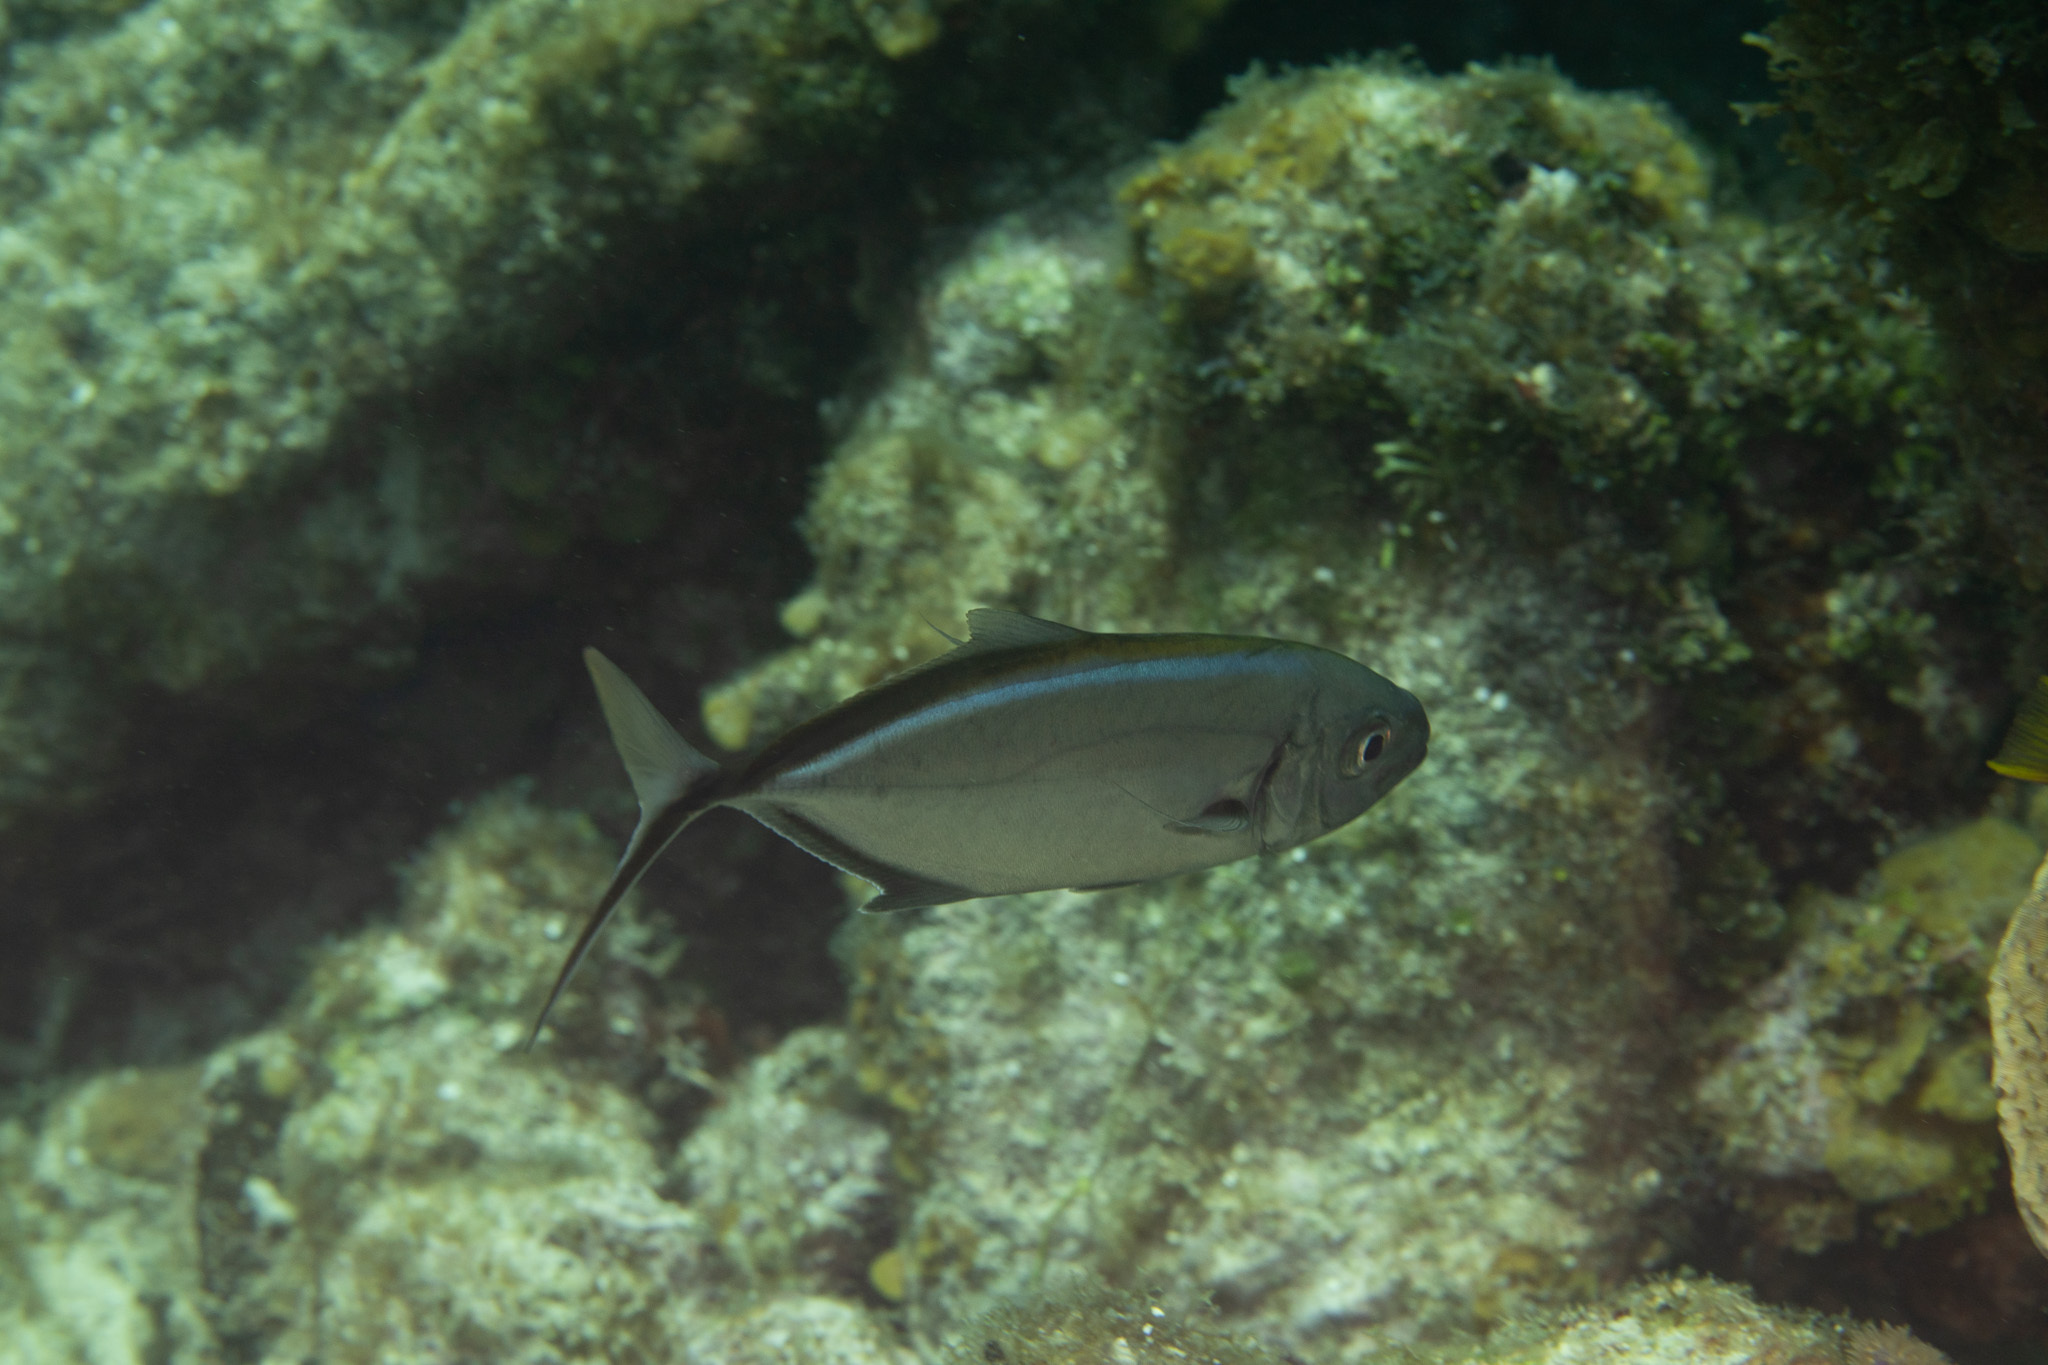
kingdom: Animalia
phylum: Chordata
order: Perciformes
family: Carangidae
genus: Caranx
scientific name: Caranx ruber
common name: Bar jack
